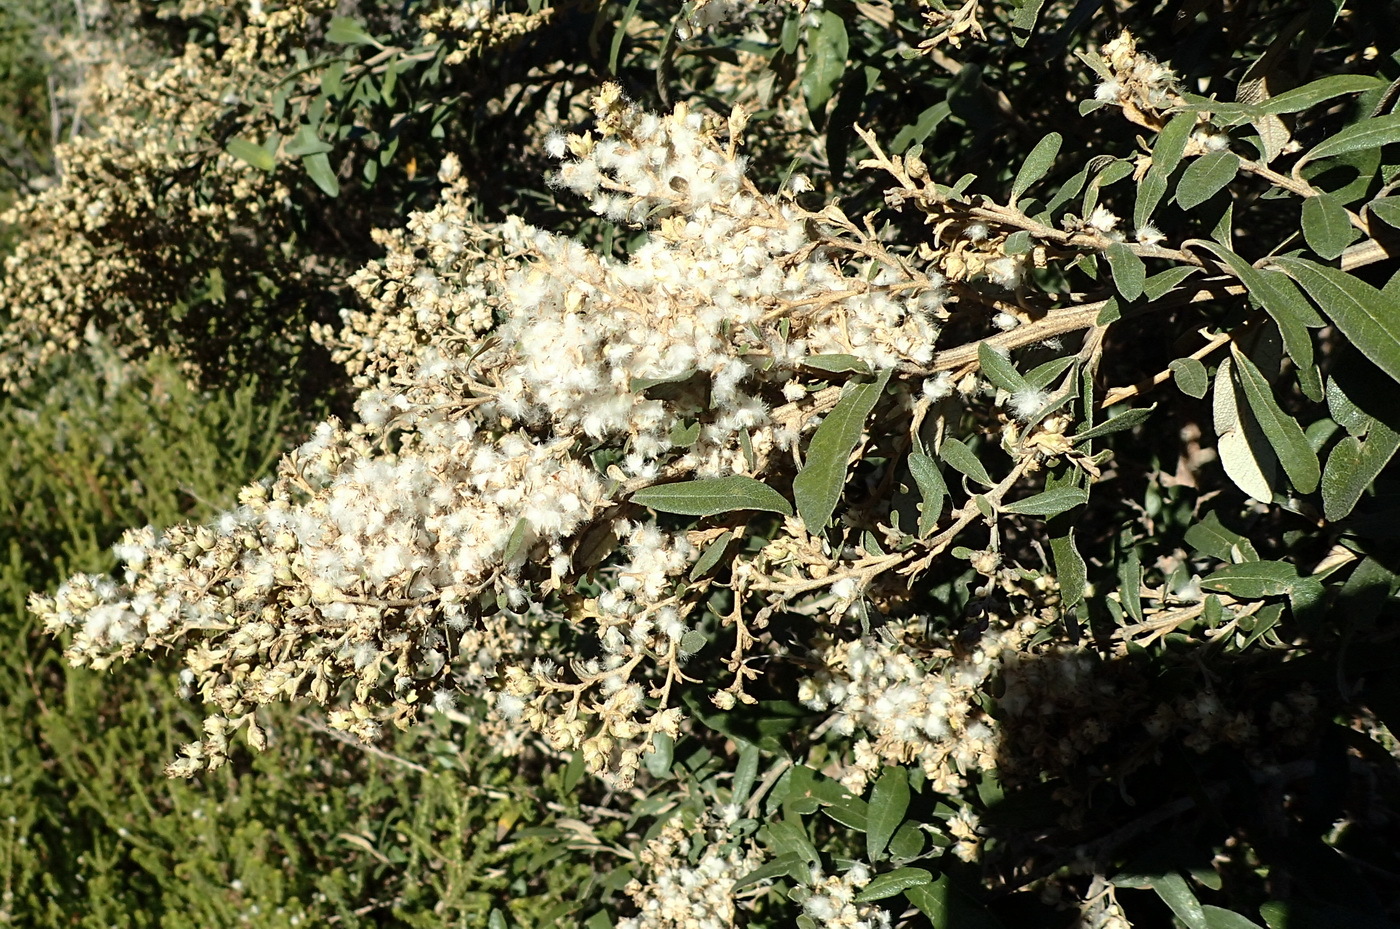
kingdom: Plantae
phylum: Tracheophyta
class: Magnoliopsida
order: Asterales
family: Asteraceae
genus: Tarchonanthus
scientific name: Tarchonanthus littoralis
